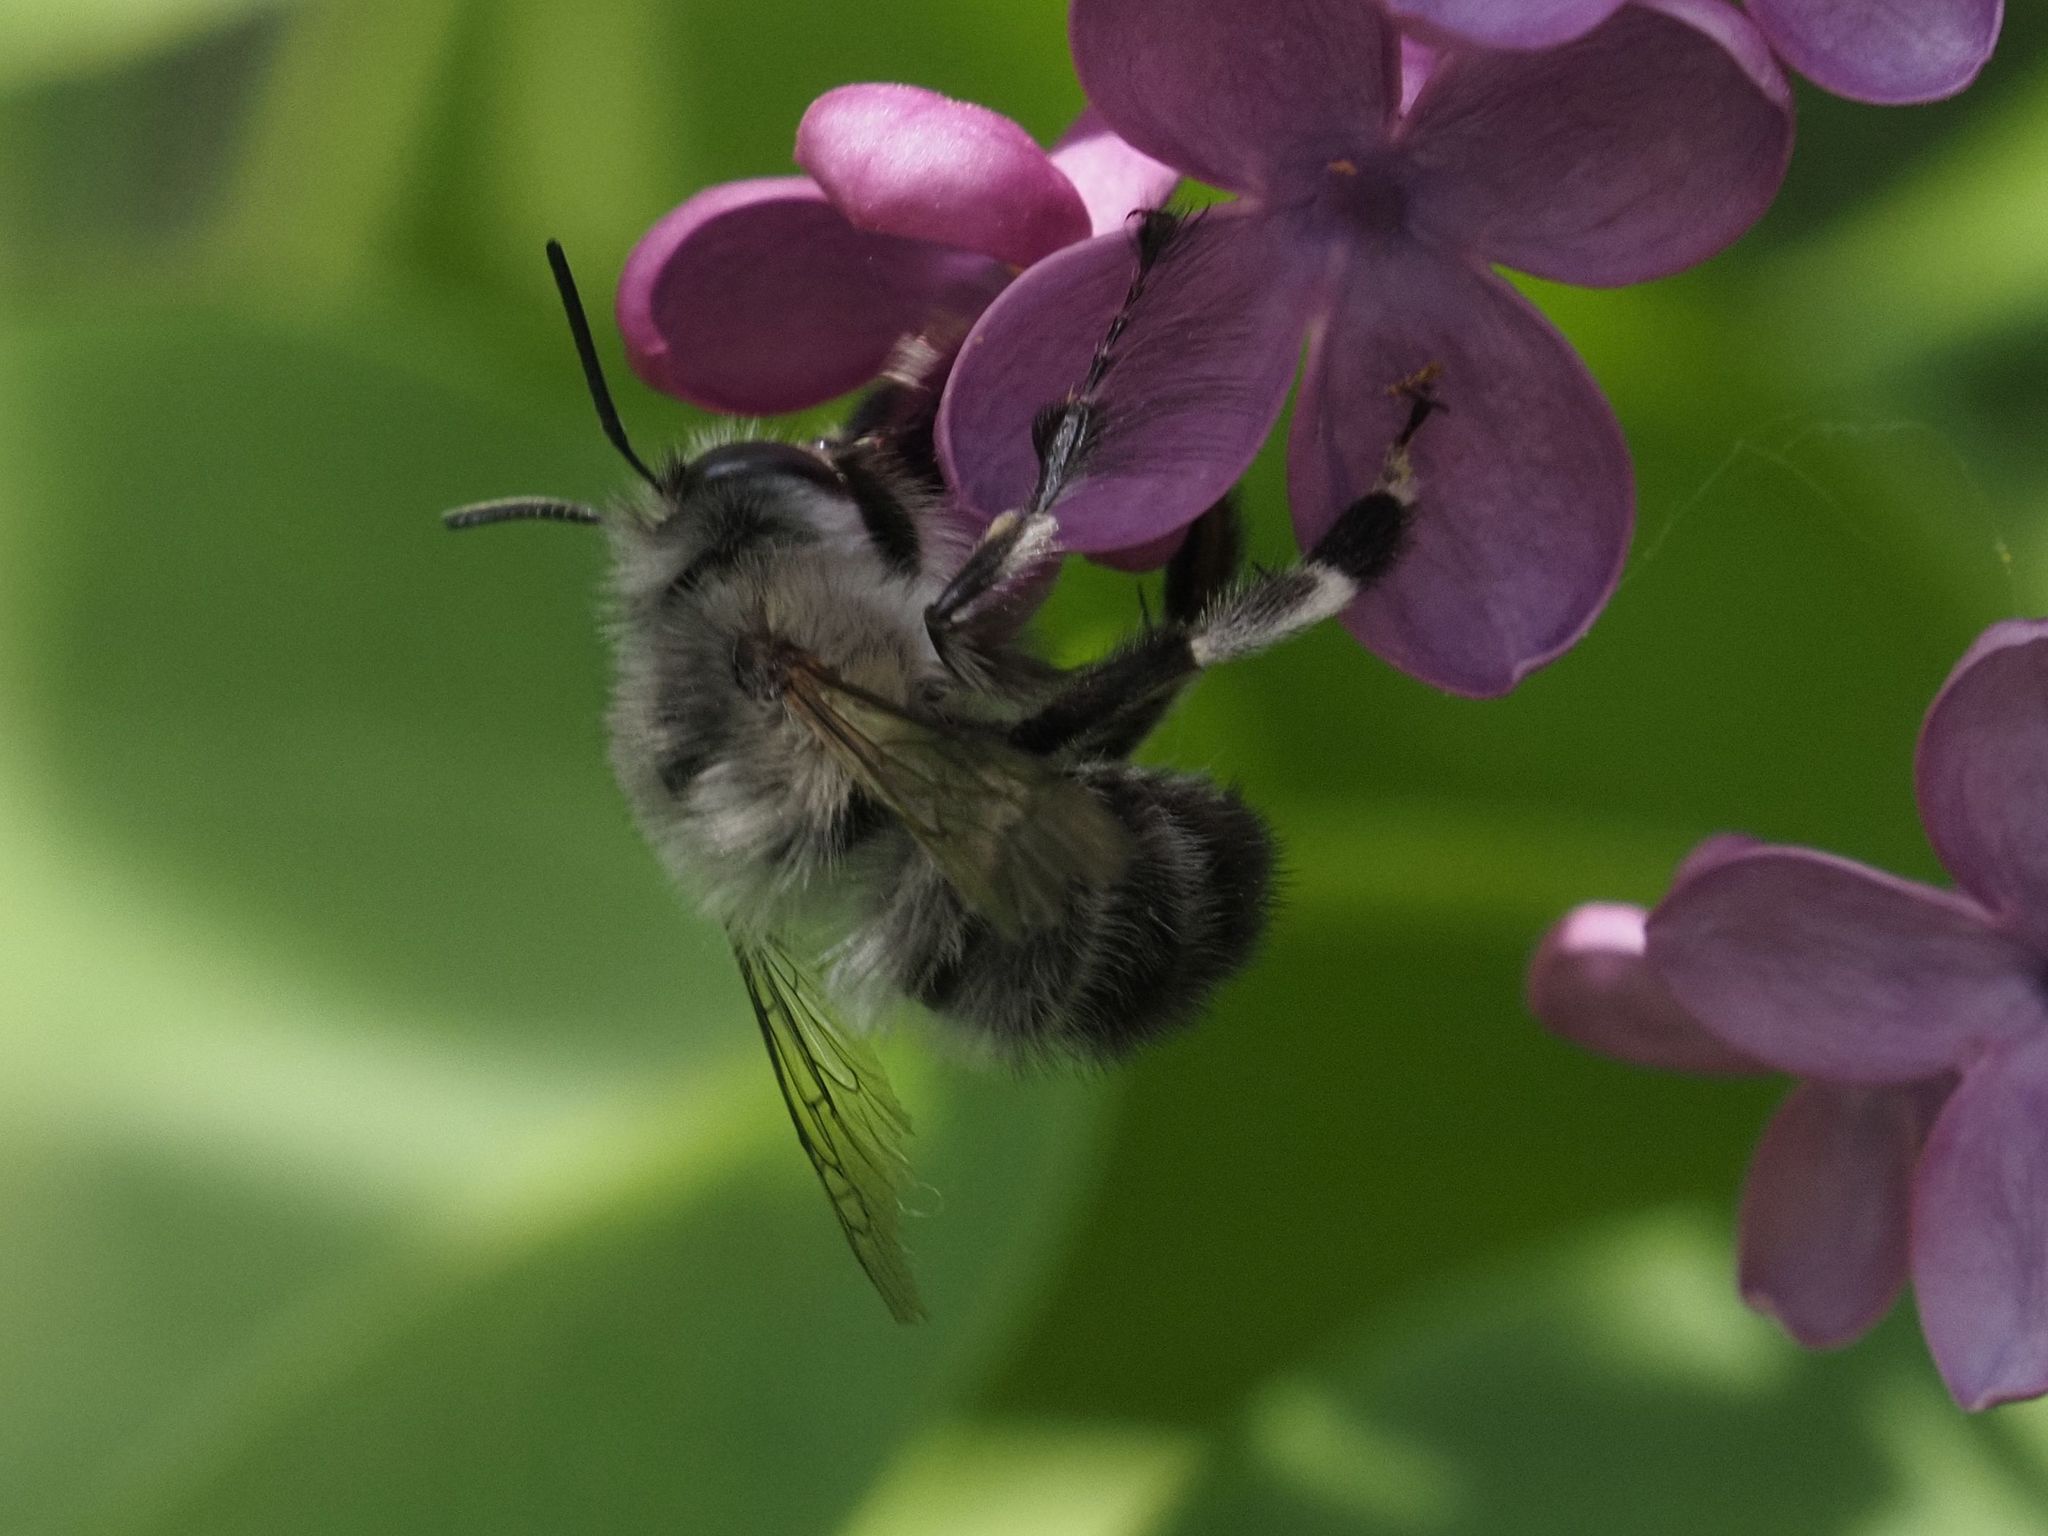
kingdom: Animalia
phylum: Arthropoda
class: Insecta
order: Hymenoptera
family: Apidae
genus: Anthophora
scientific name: Anthophora plumipes
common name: Hairy-footed flower bee
